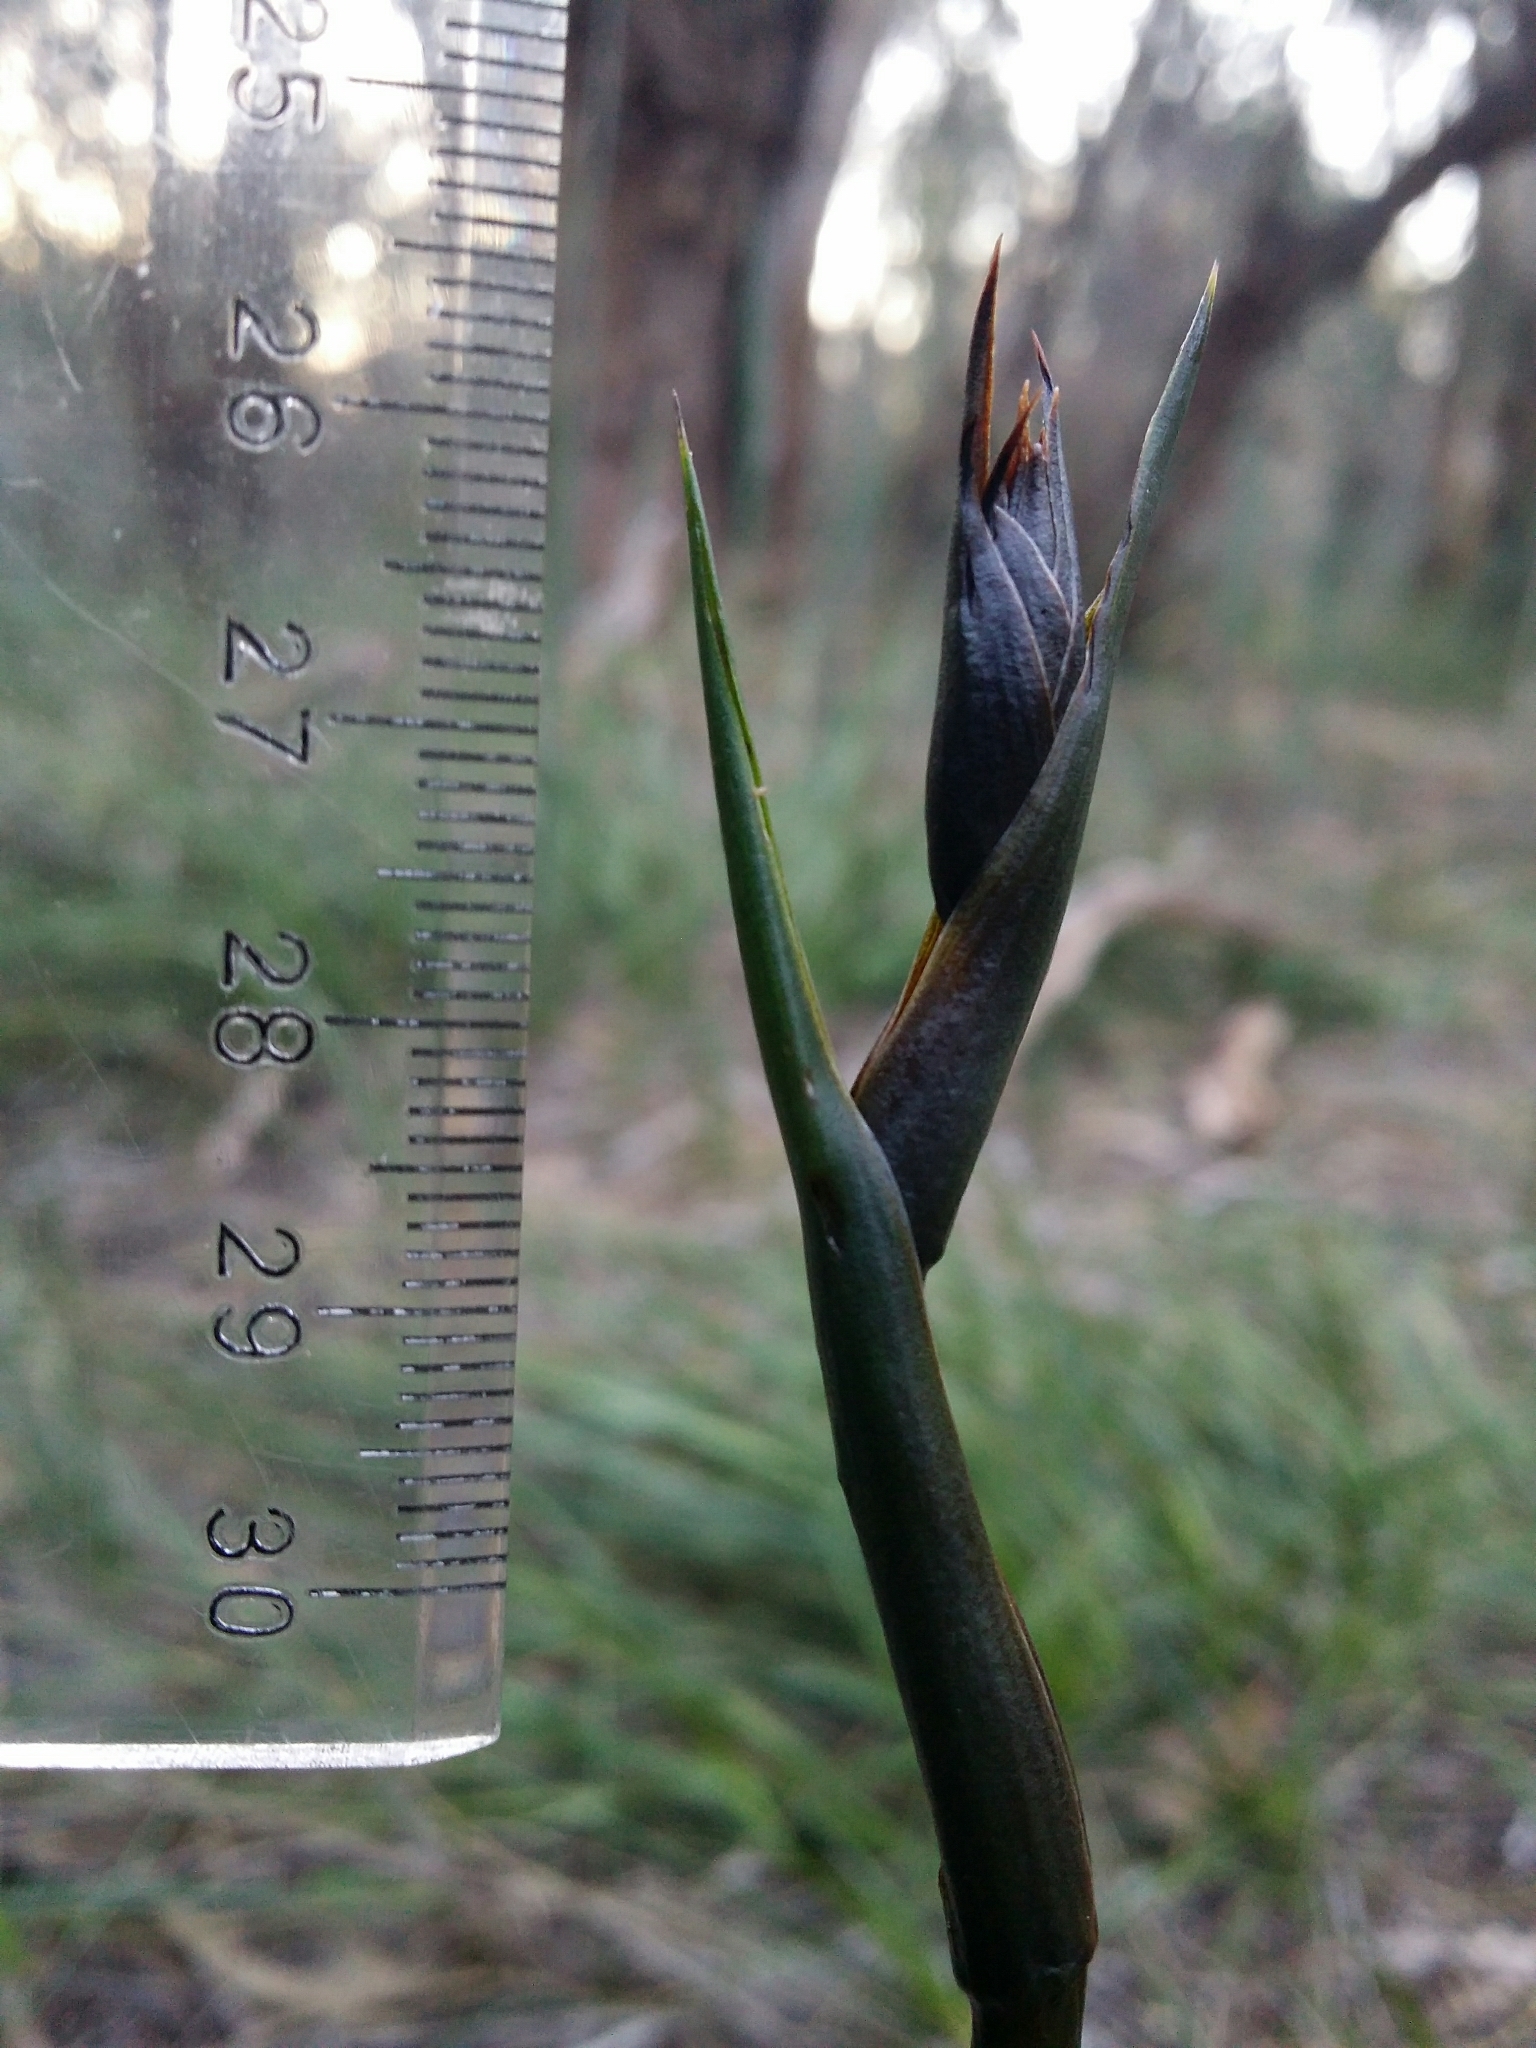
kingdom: Plantae
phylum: Tracheophyta
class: Liliopsida
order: Commelinales
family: Haemodoraceae
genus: Haemodorum
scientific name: Haemodorum spicatum
